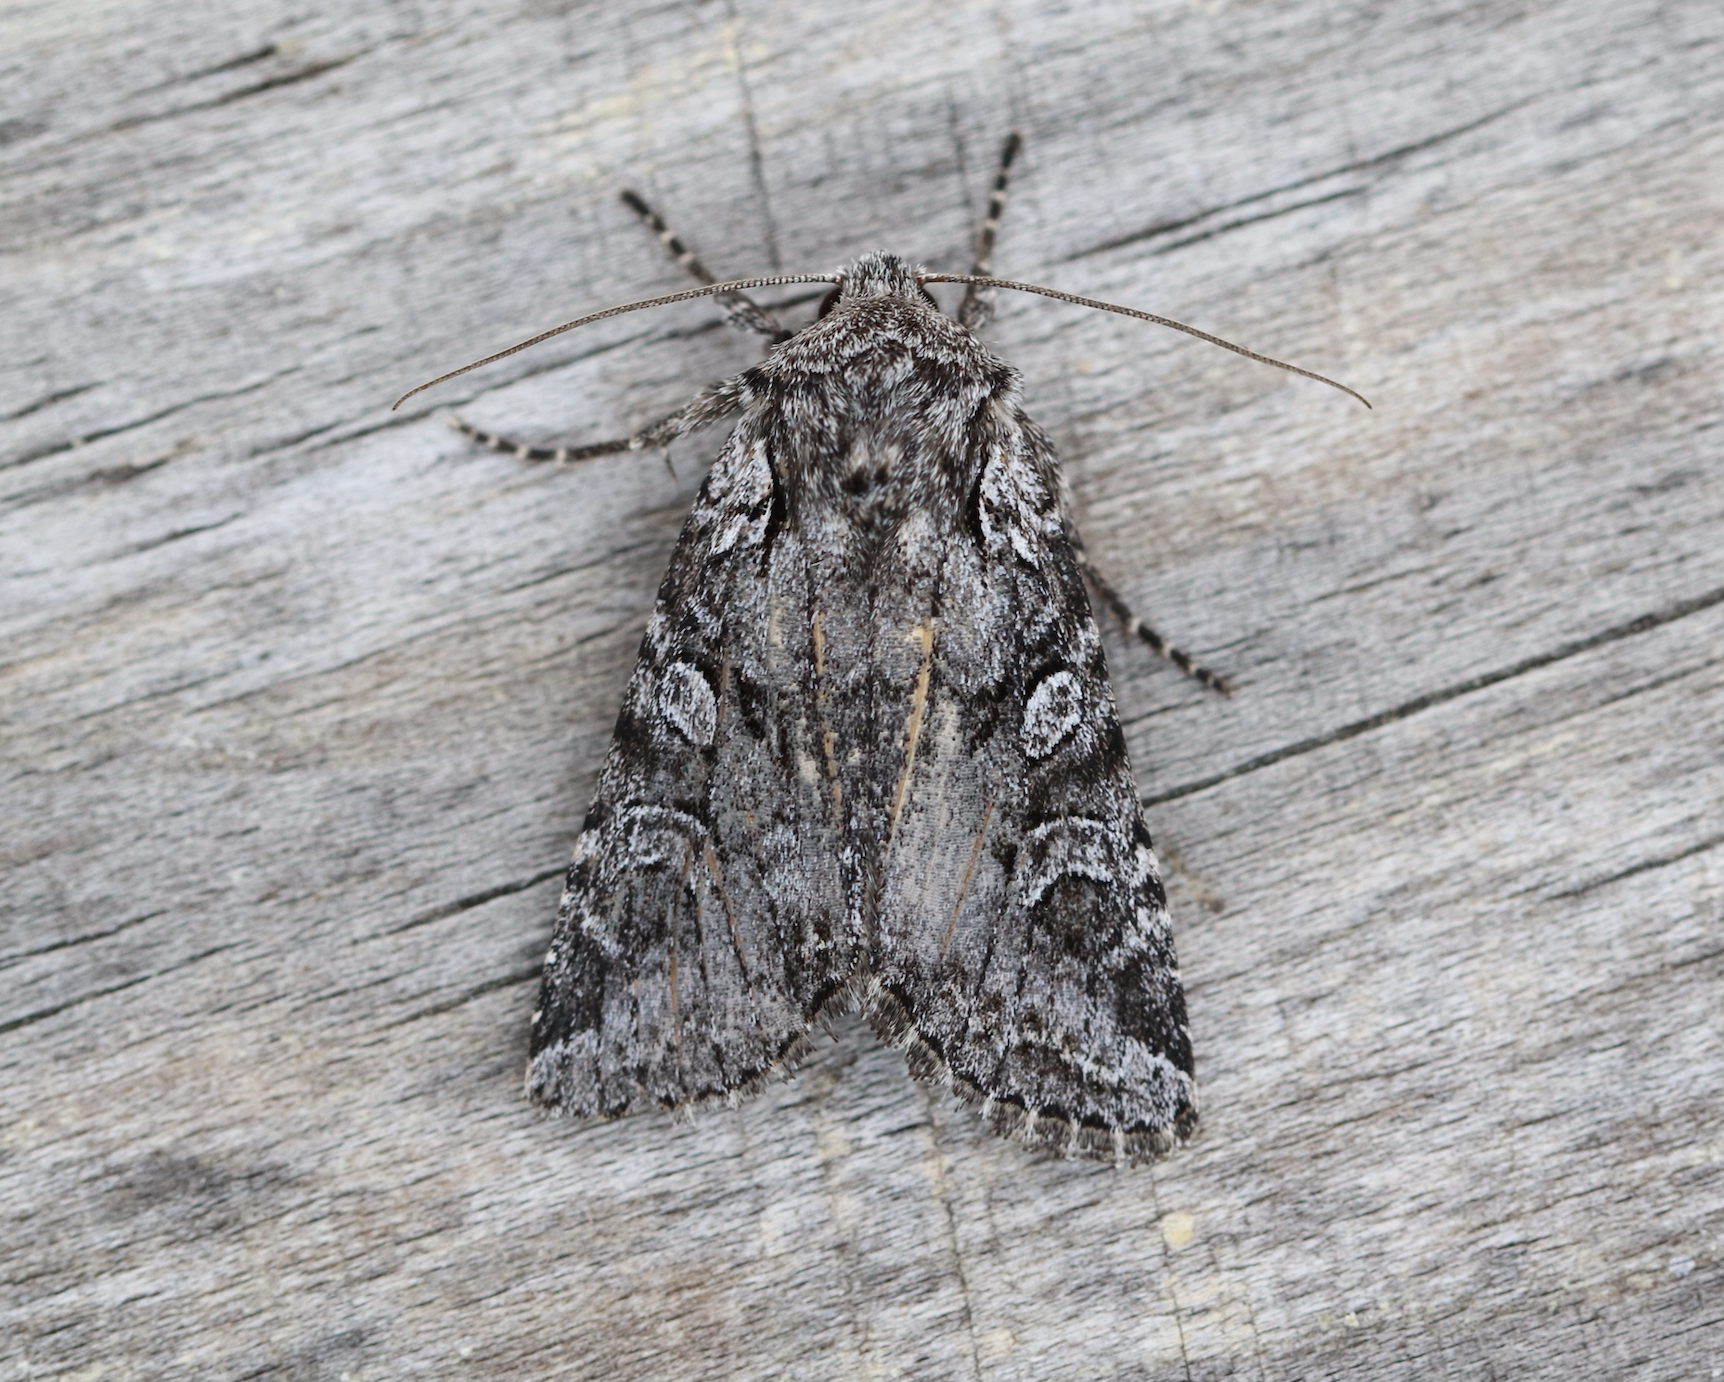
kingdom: Animalia
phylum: Arthropoda
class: Insecta
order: Lepidoptera
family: Noctuidae
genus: Lasionycta
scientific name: Lasionycta proxima
